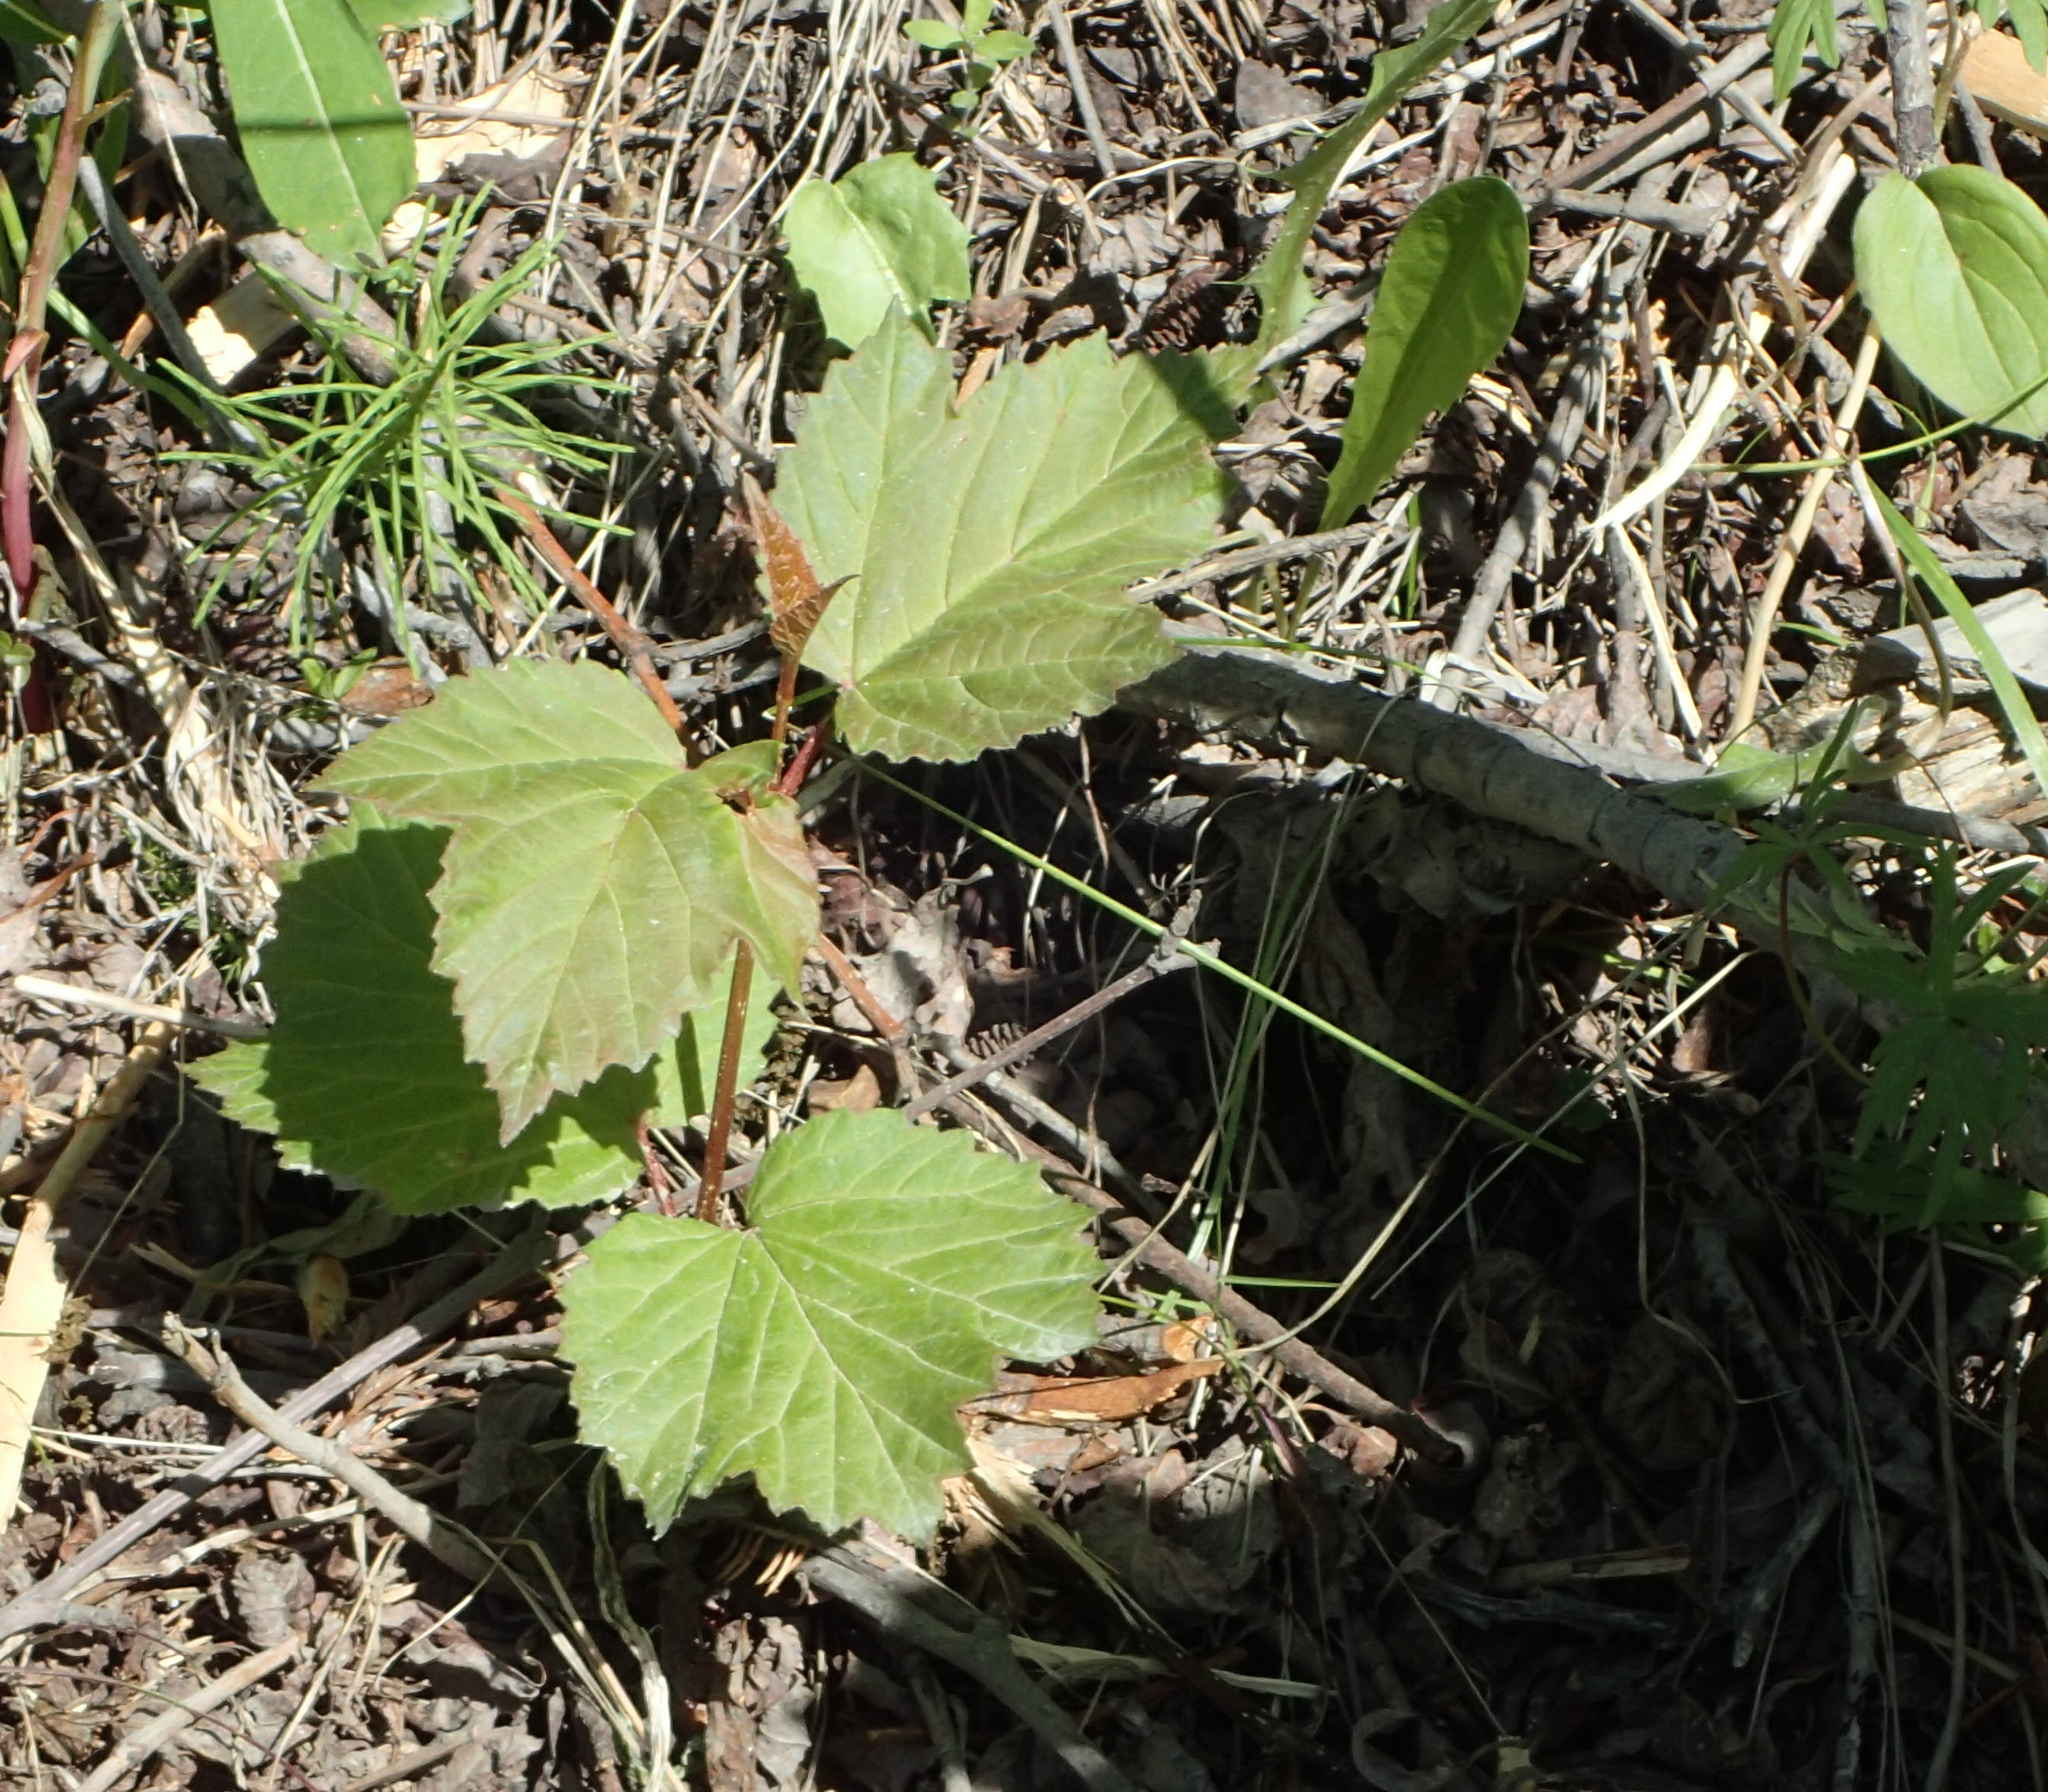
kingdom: Plantae
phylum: Tracheophyta
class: Magnoliopsida
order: Dipsacales
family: Viburnaceae
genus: Viburnum
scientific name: Viburnum edule
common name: Mooseberry
